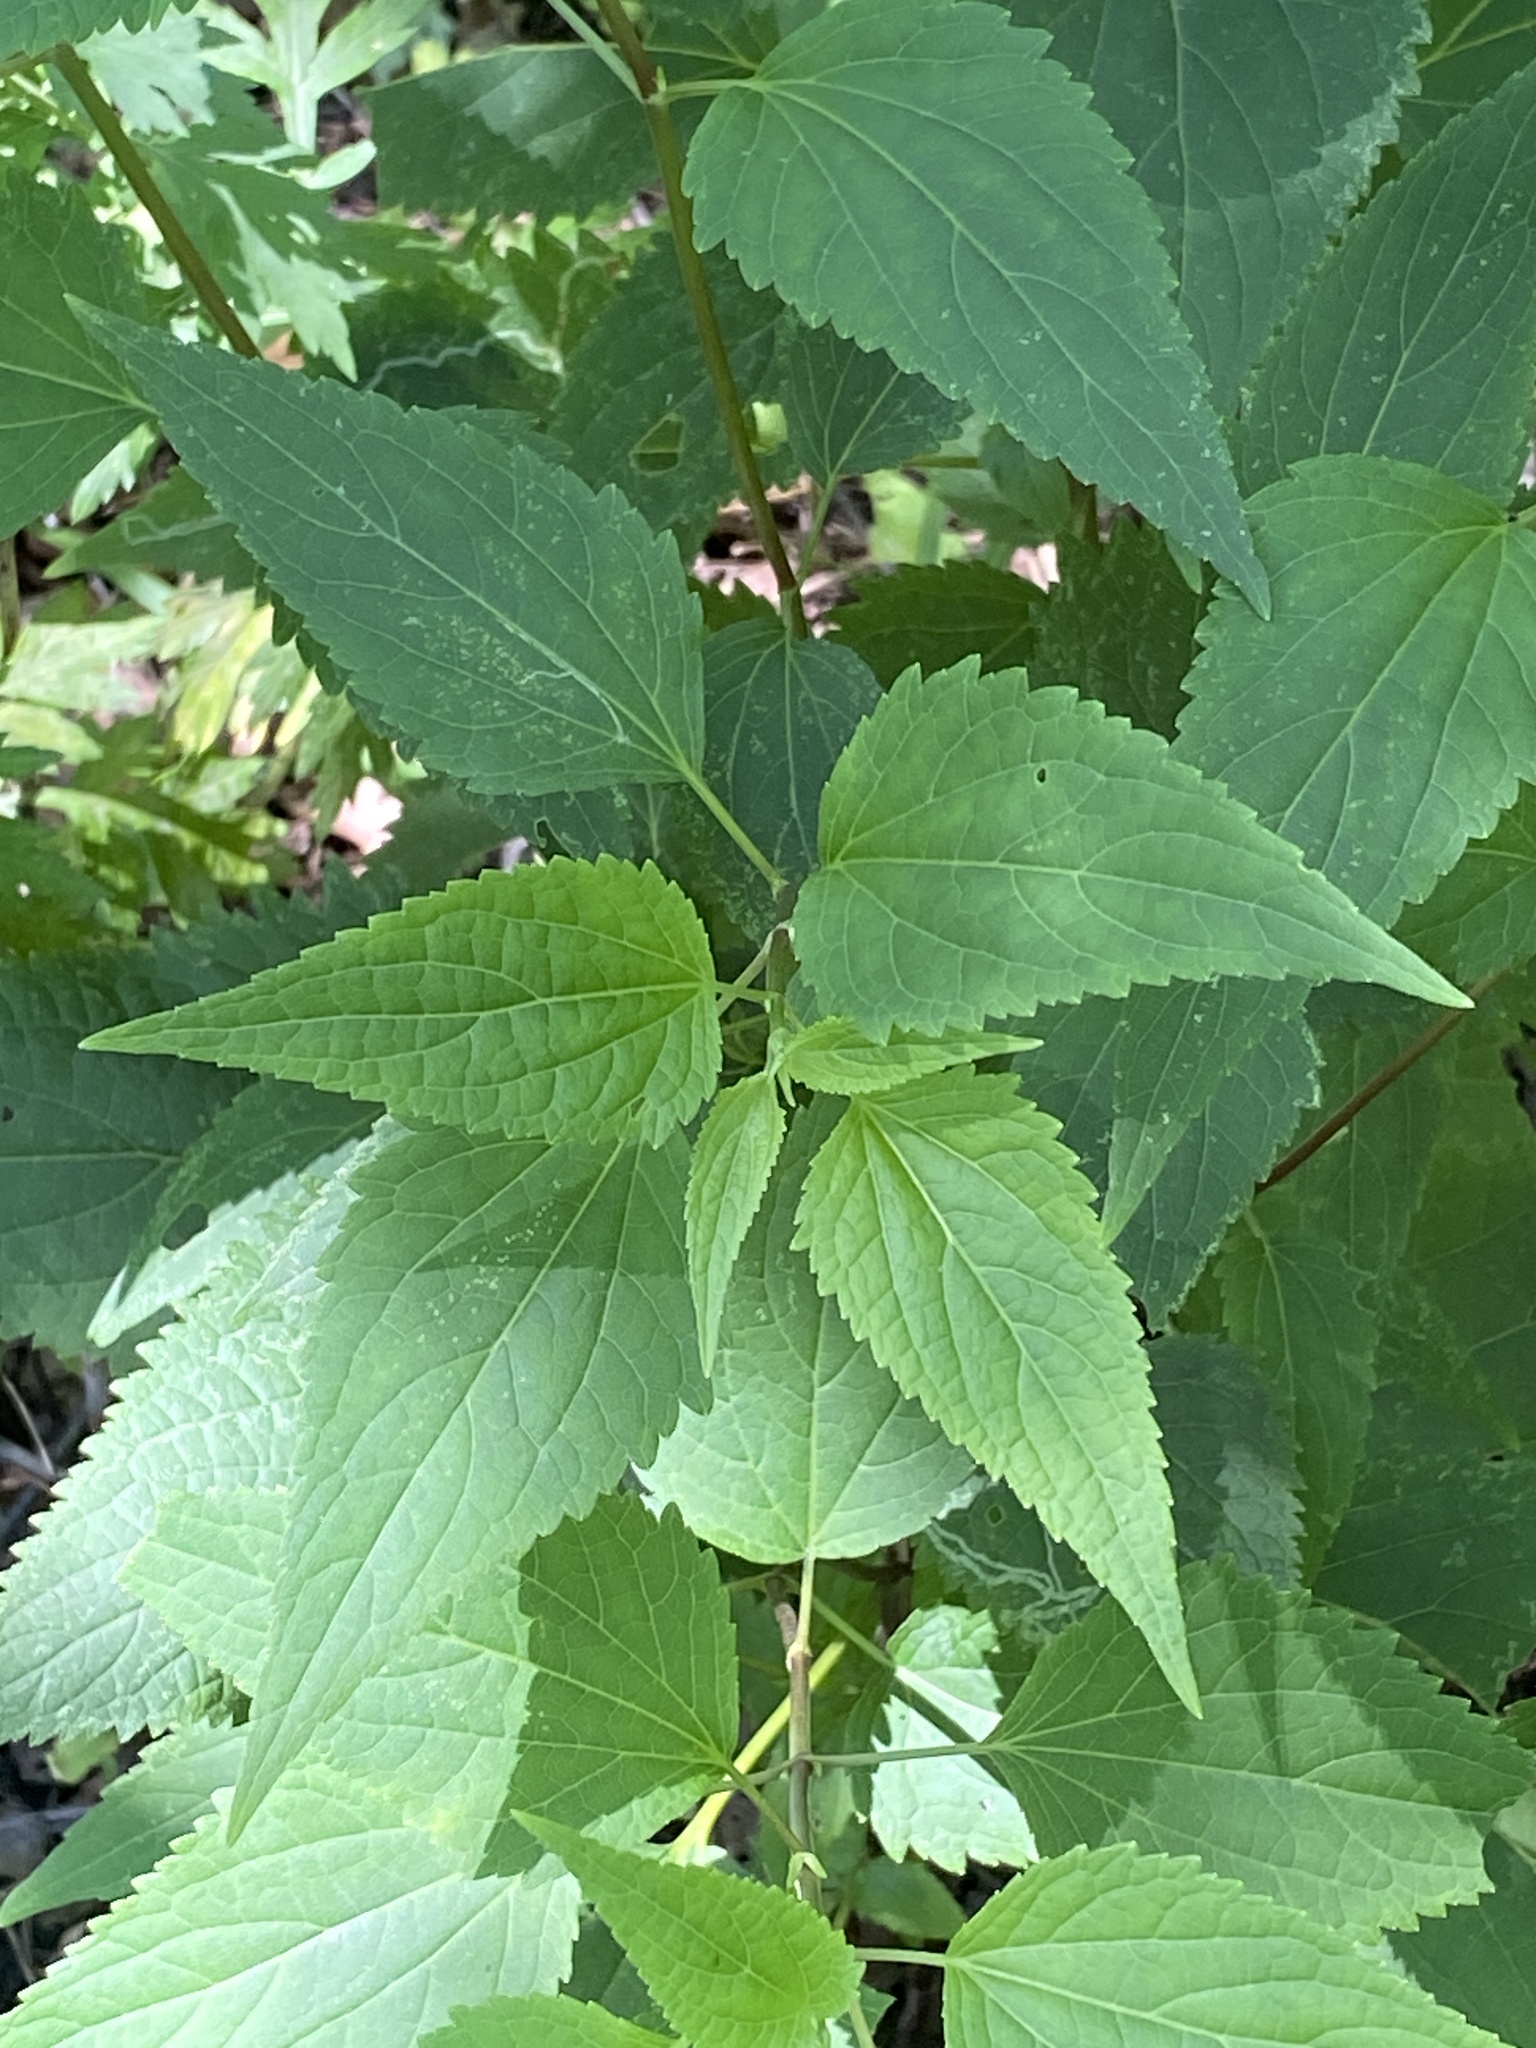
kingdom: Plantae
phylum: Tracheophyta
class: Magnoliopsida
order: Asterales
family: Asteraceae
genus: Ageratina
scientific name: Ageratina altissima
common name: White snakeroot
